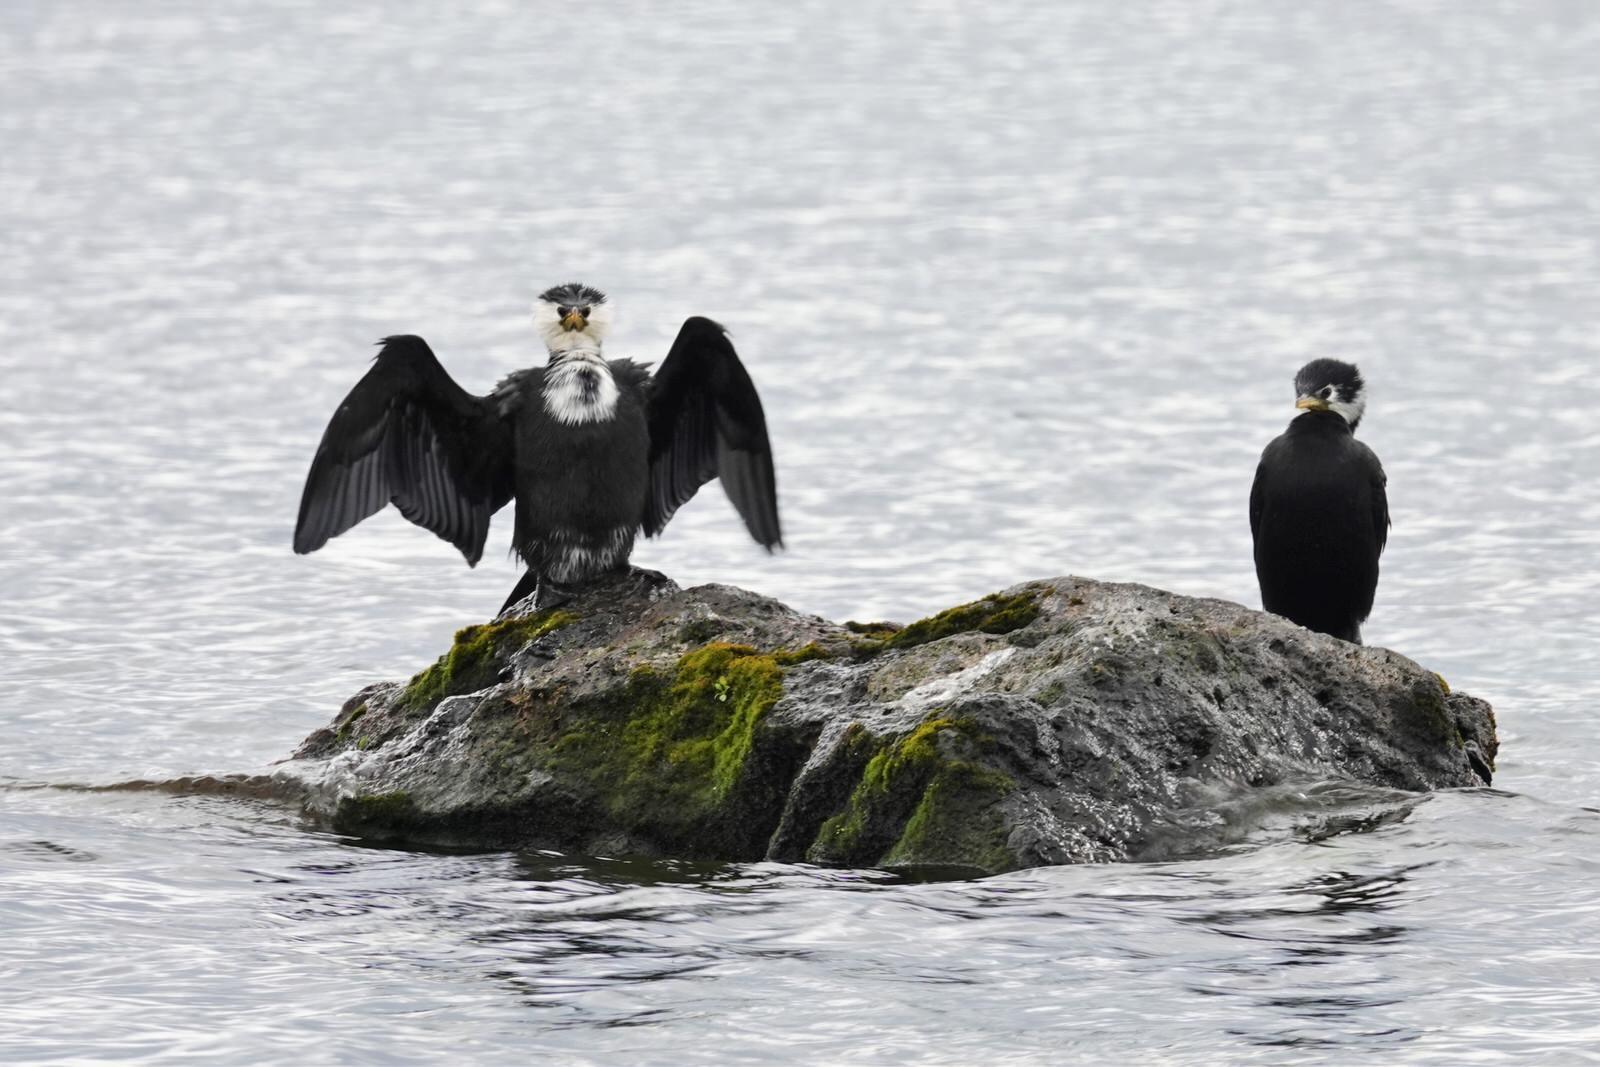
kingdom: Animalia
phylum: Chordata
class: Aves
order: Suliformes
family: Phalacrocoracidae
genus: Microcarbo
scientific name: Microcarbo melanoleucos
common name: Little pied cormorant
